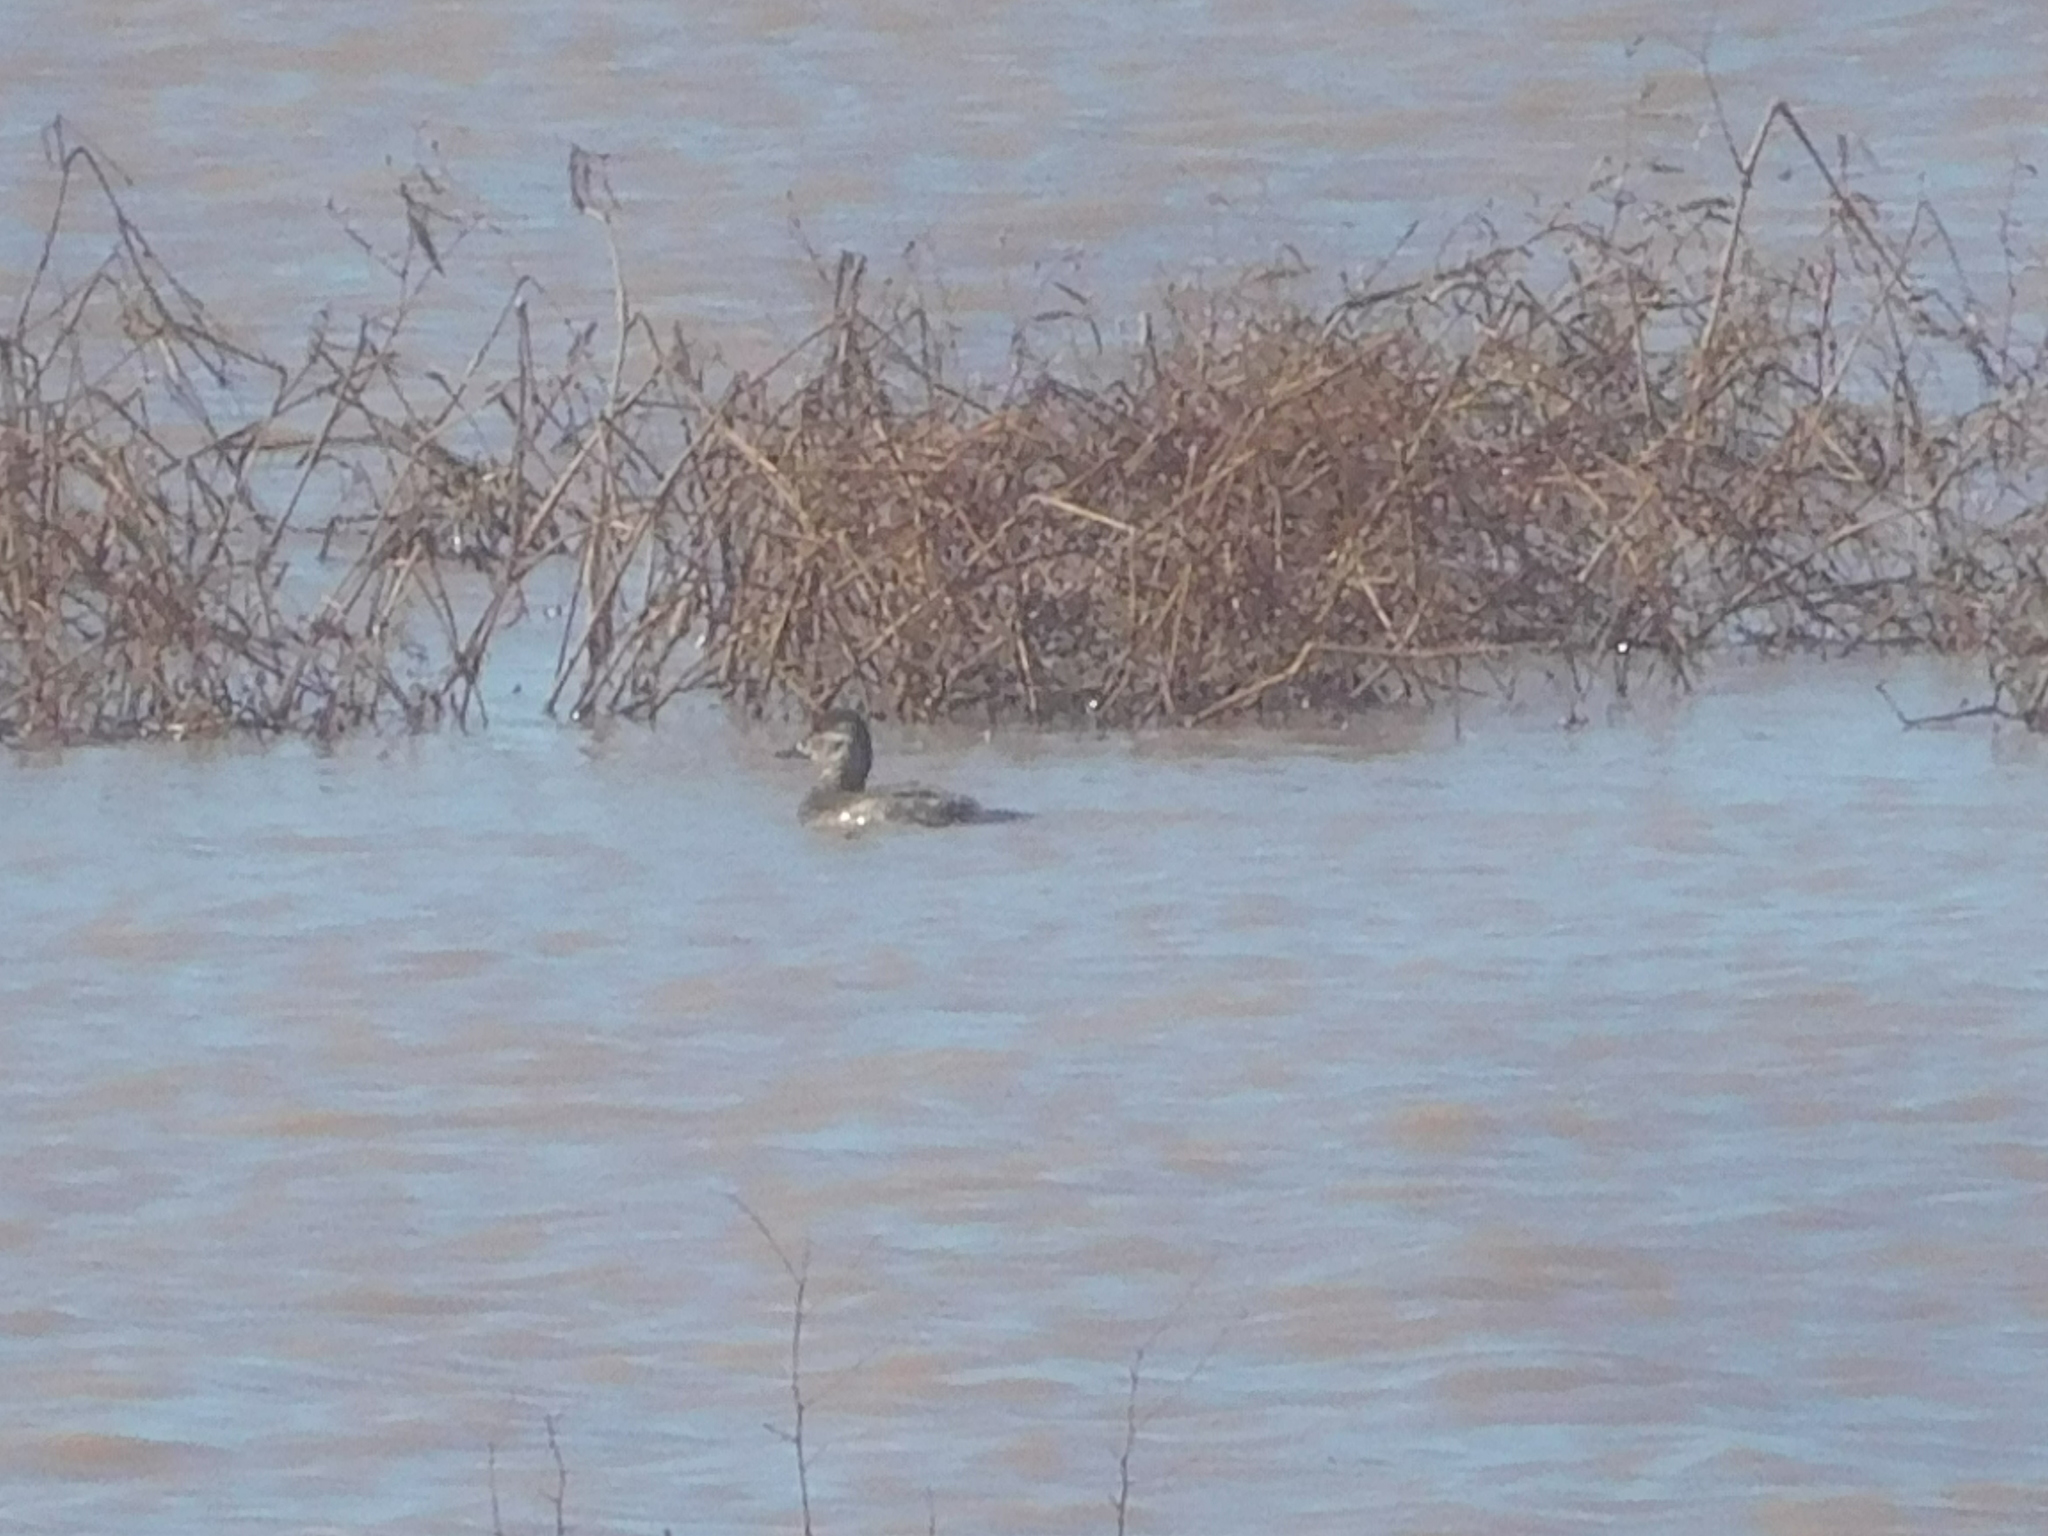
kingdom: Animalia
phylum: Chordata
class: Aves
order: Anseriformes
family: Anatidae
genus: Oxyura
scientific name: Oxyura jamaicensis
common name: Ruddy duck
